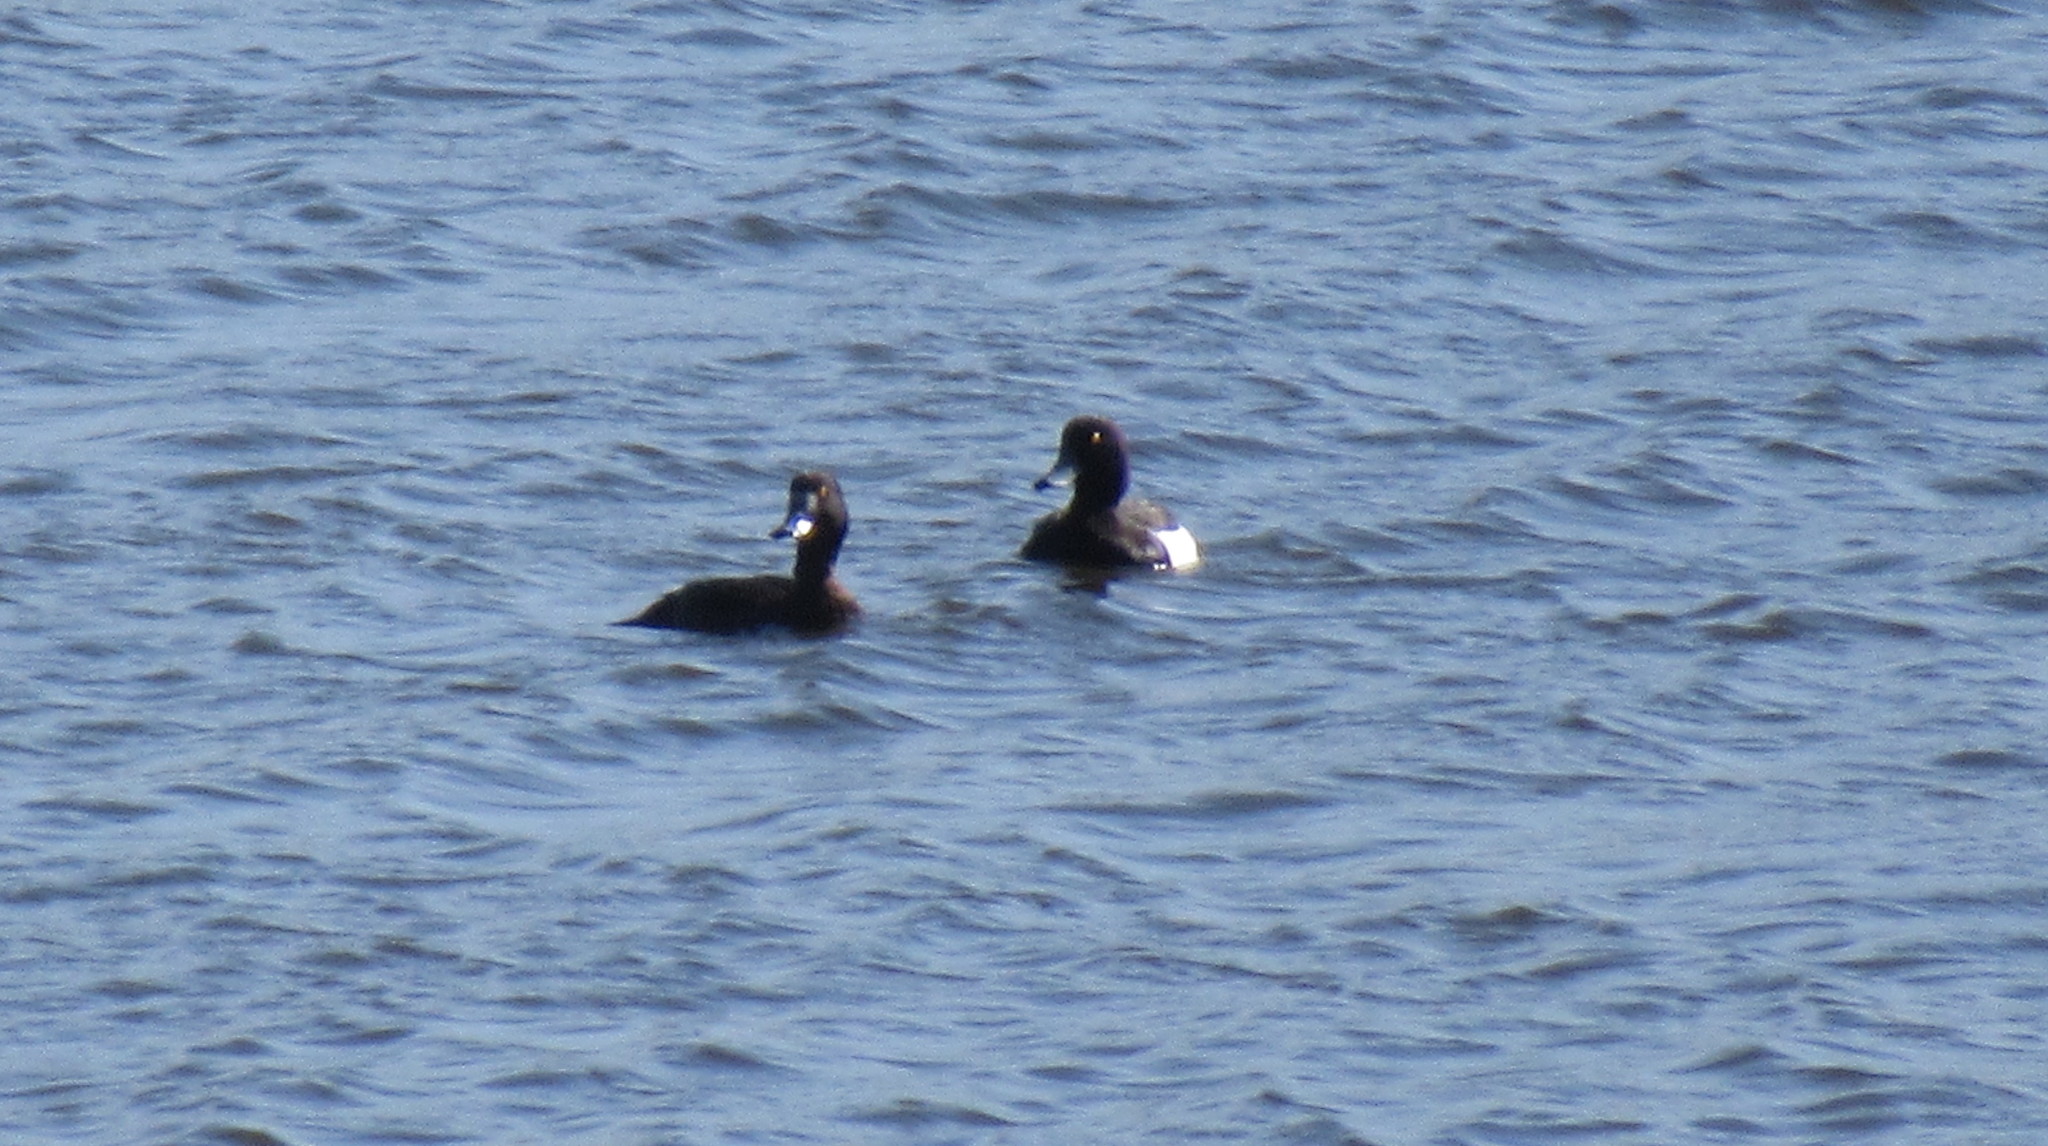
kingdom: Animalia
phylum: Chordata
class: Aves
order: Anseriformes
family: Anatidae
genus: Aythya
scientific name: Aythya fuligula
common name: Tufted duck
